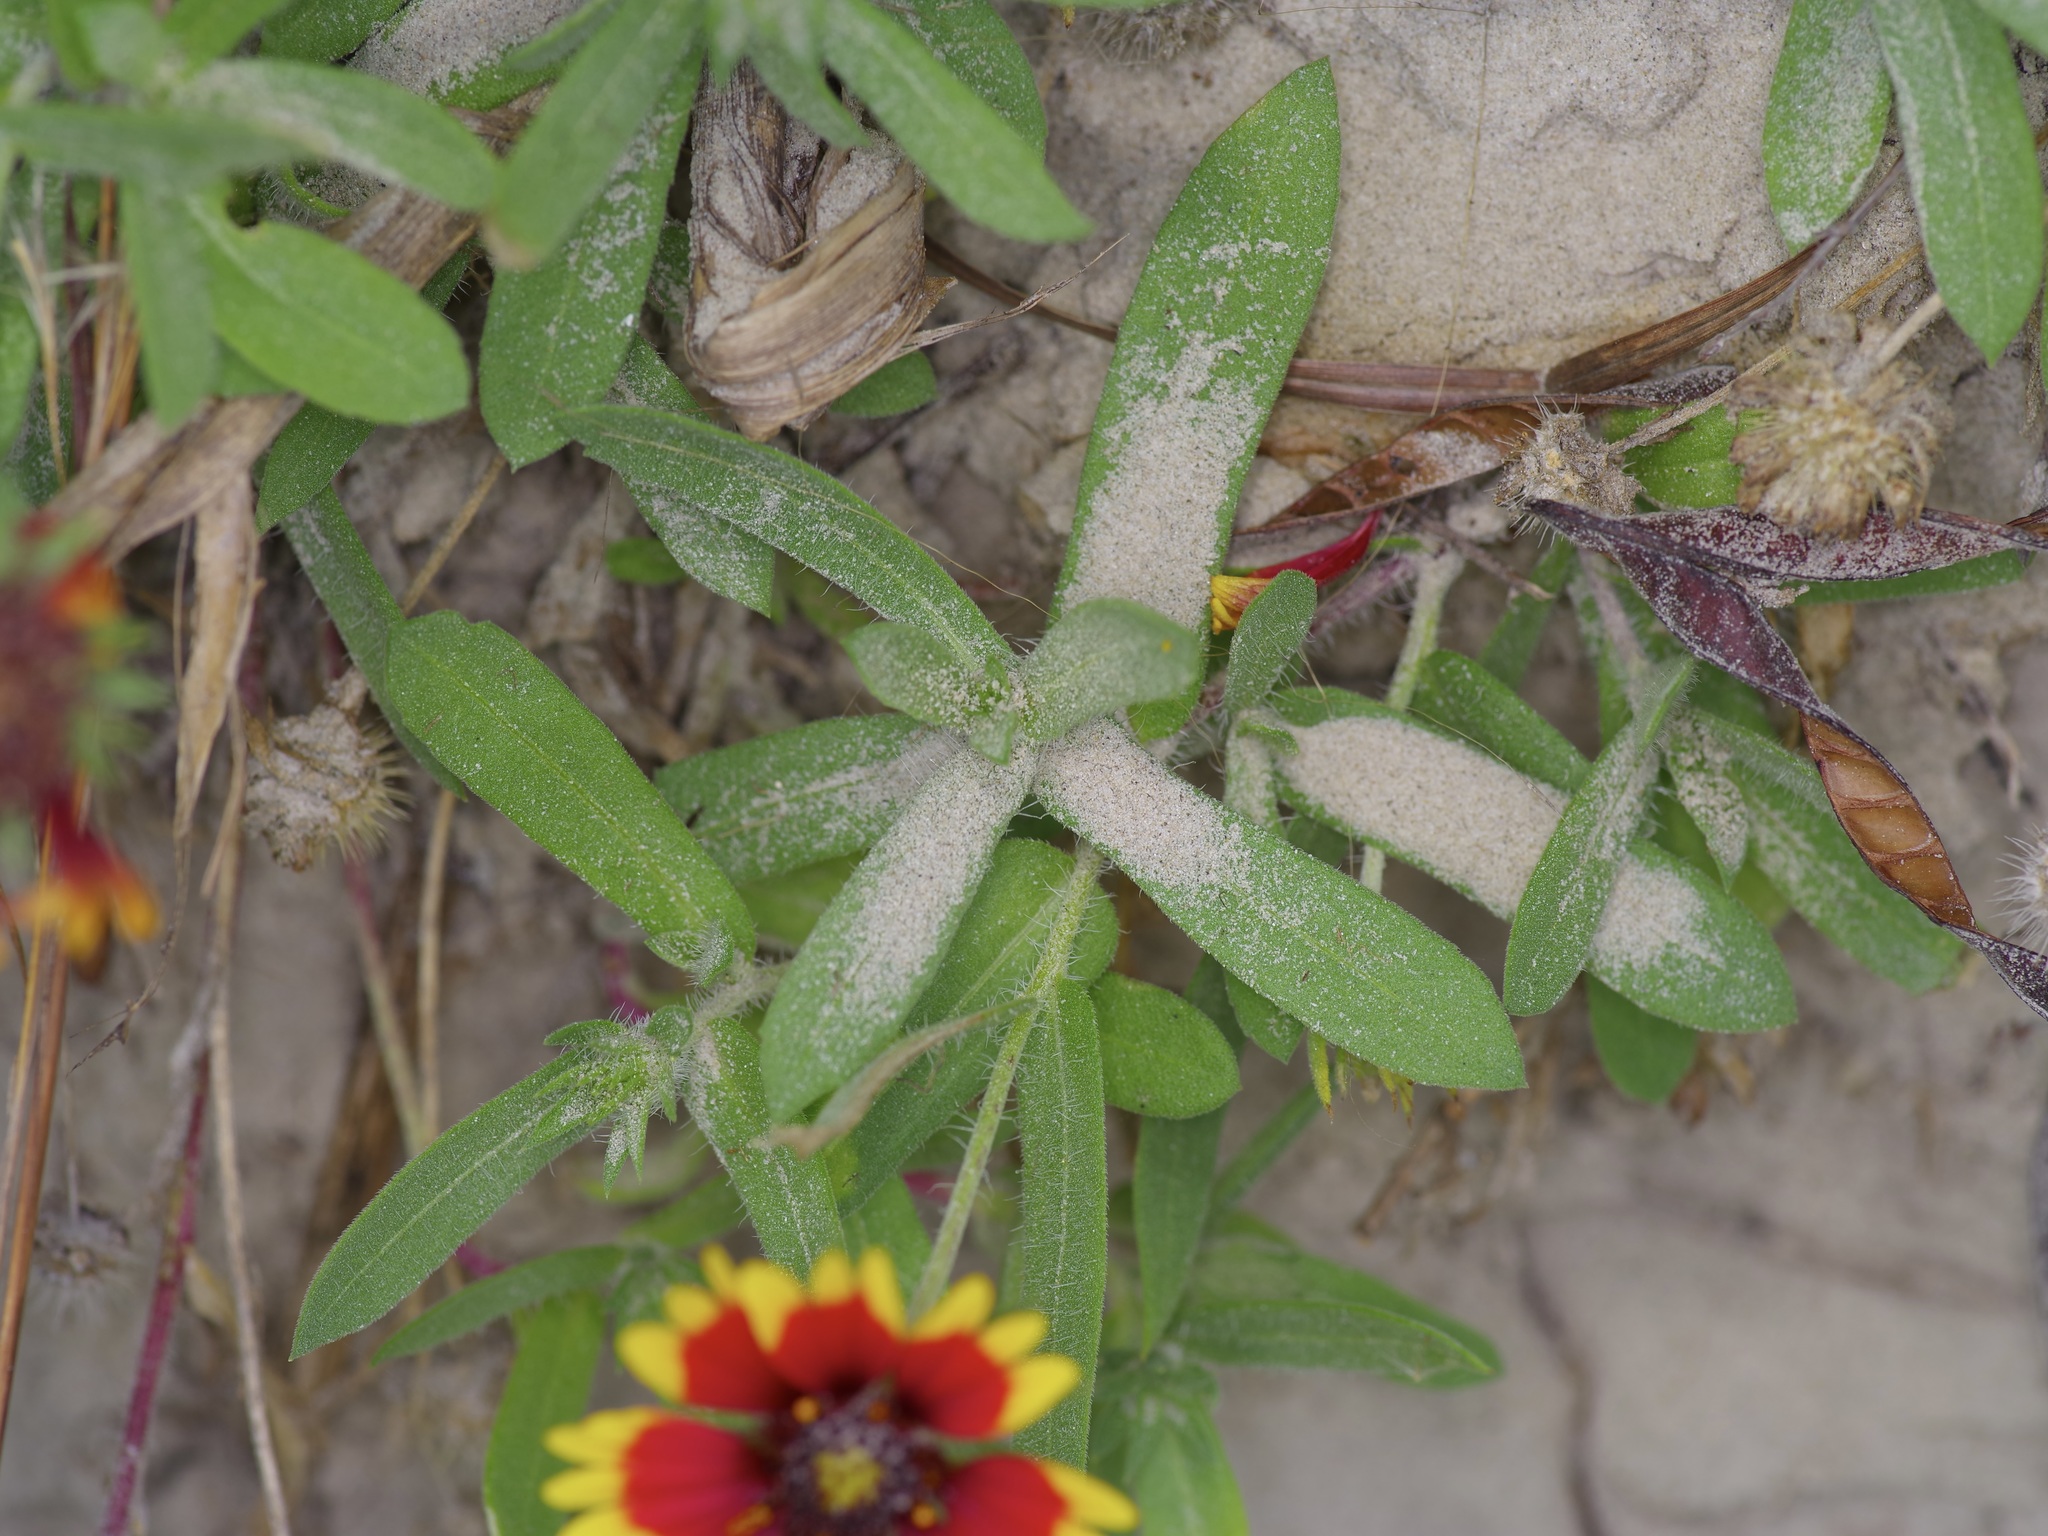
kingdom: Plantae
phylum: Tracheophyta
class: Magnoliopsida
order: Asterales
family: Asteraceae
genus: Gaillardia
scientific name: Gaillardia pulchella
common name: Firewheel
